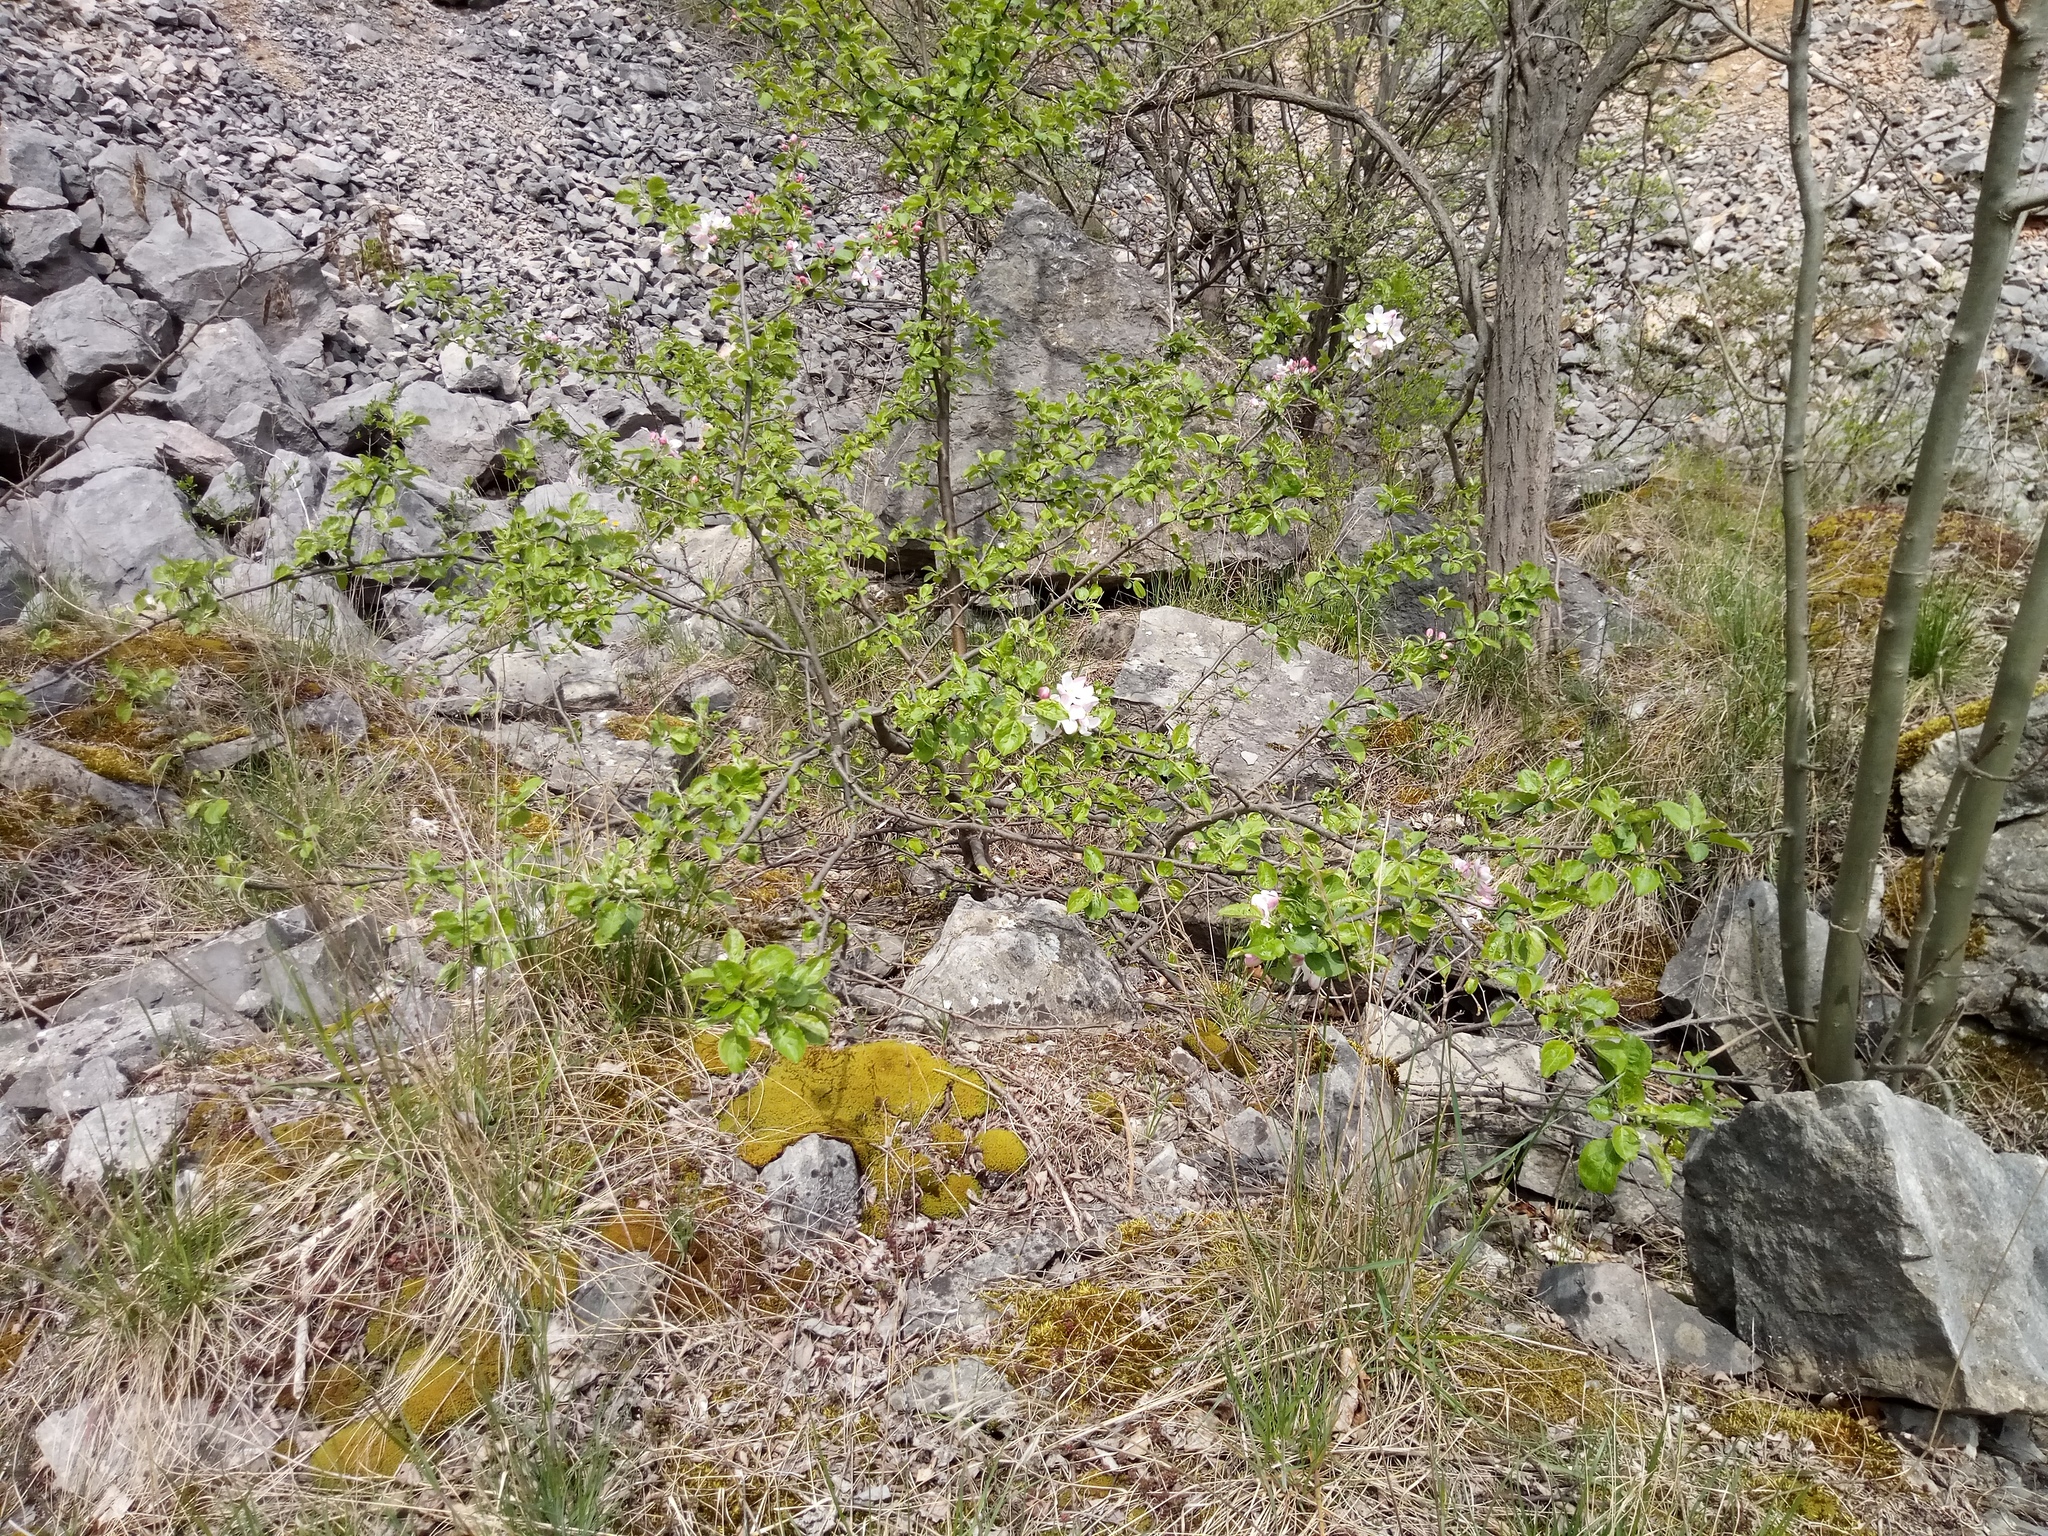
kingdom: Plantae
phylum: Tracheophyta
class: Magnoliopsida
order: Rosales
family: Rosaceae
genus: Malus
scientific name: Malus domestica
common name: Apple
